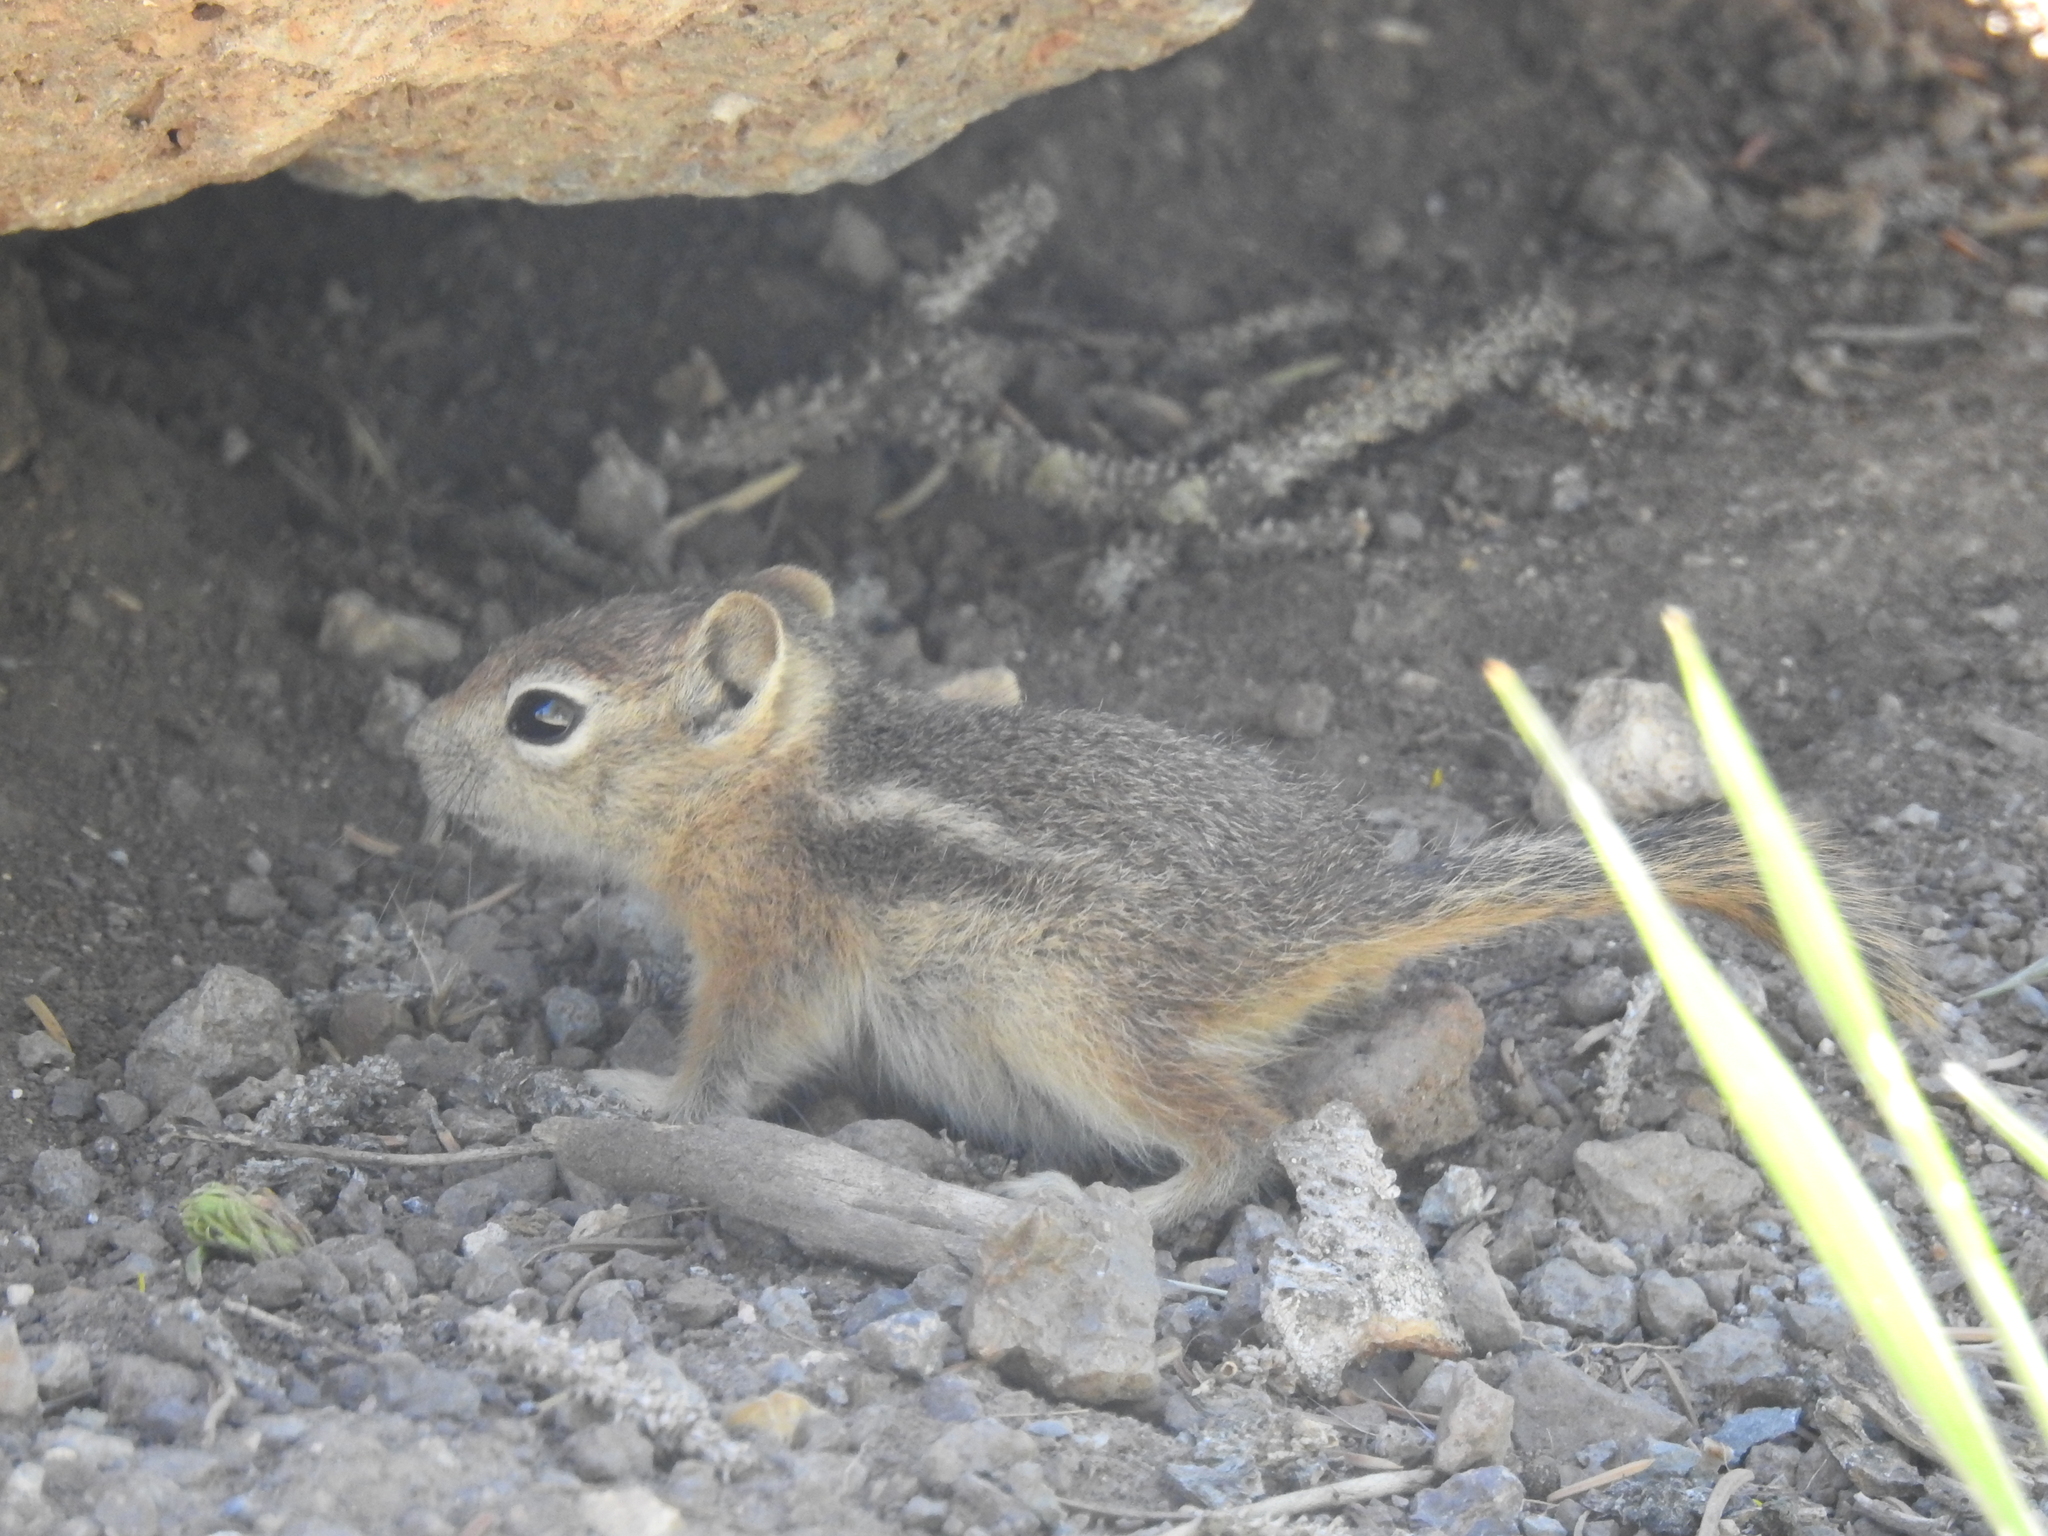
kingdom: Animalia
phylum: Chordata
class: Mammalia
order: Rodentia
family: Sciuridae
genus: Callospermophilus
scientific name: Callospermophilus lateralis
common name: Golden-mantled ground squirrel
